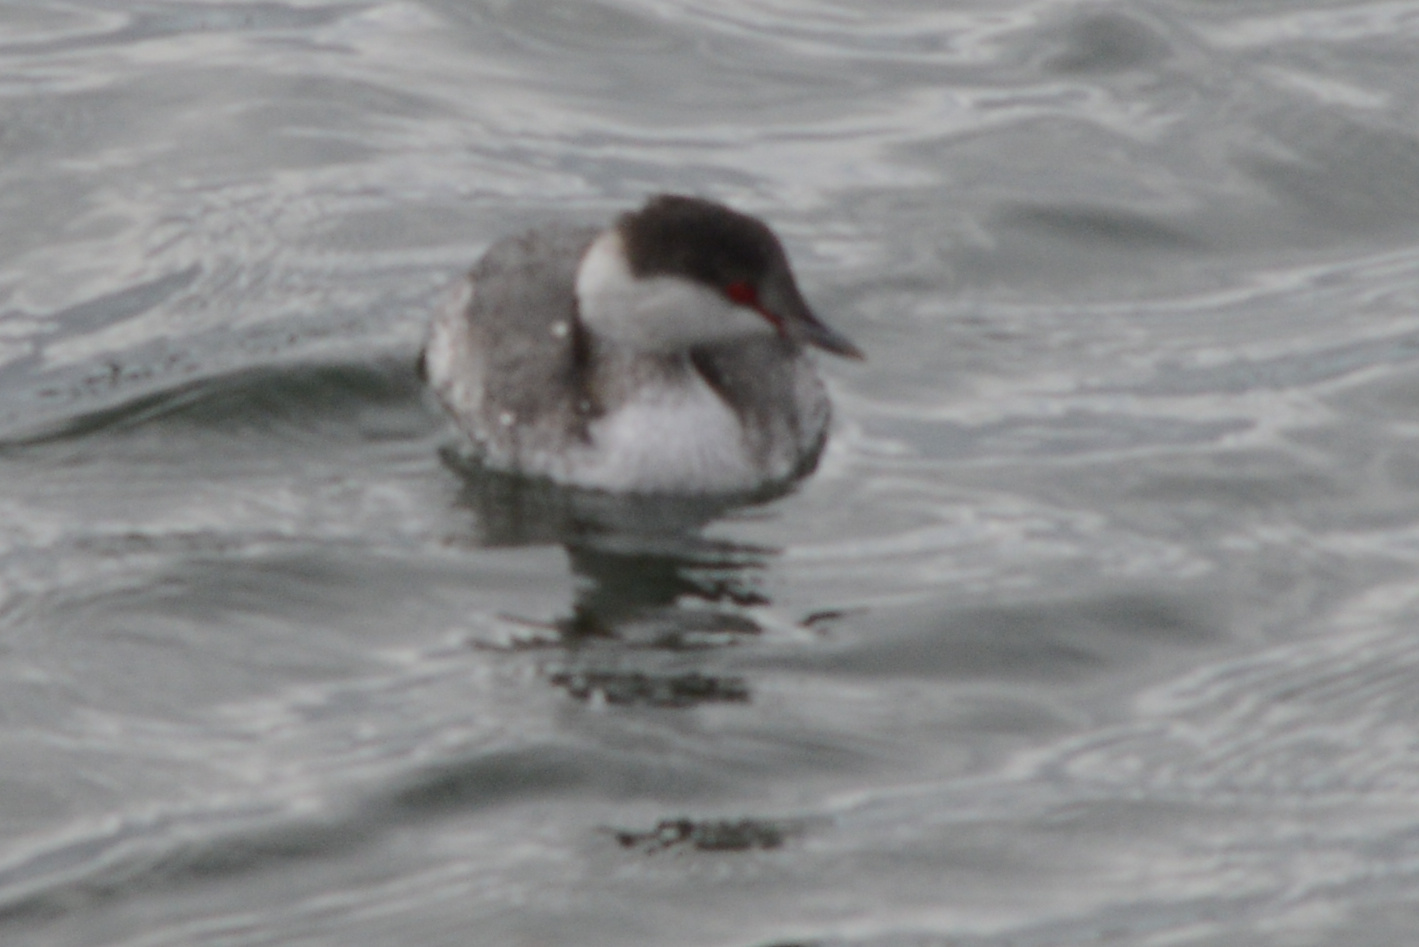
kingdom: Animalia
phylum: Chordata
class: Aves
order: Podicipediformes
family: Podicipedidae
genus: Podiceps
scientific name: Podiceps auritus
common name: Horned grebe
